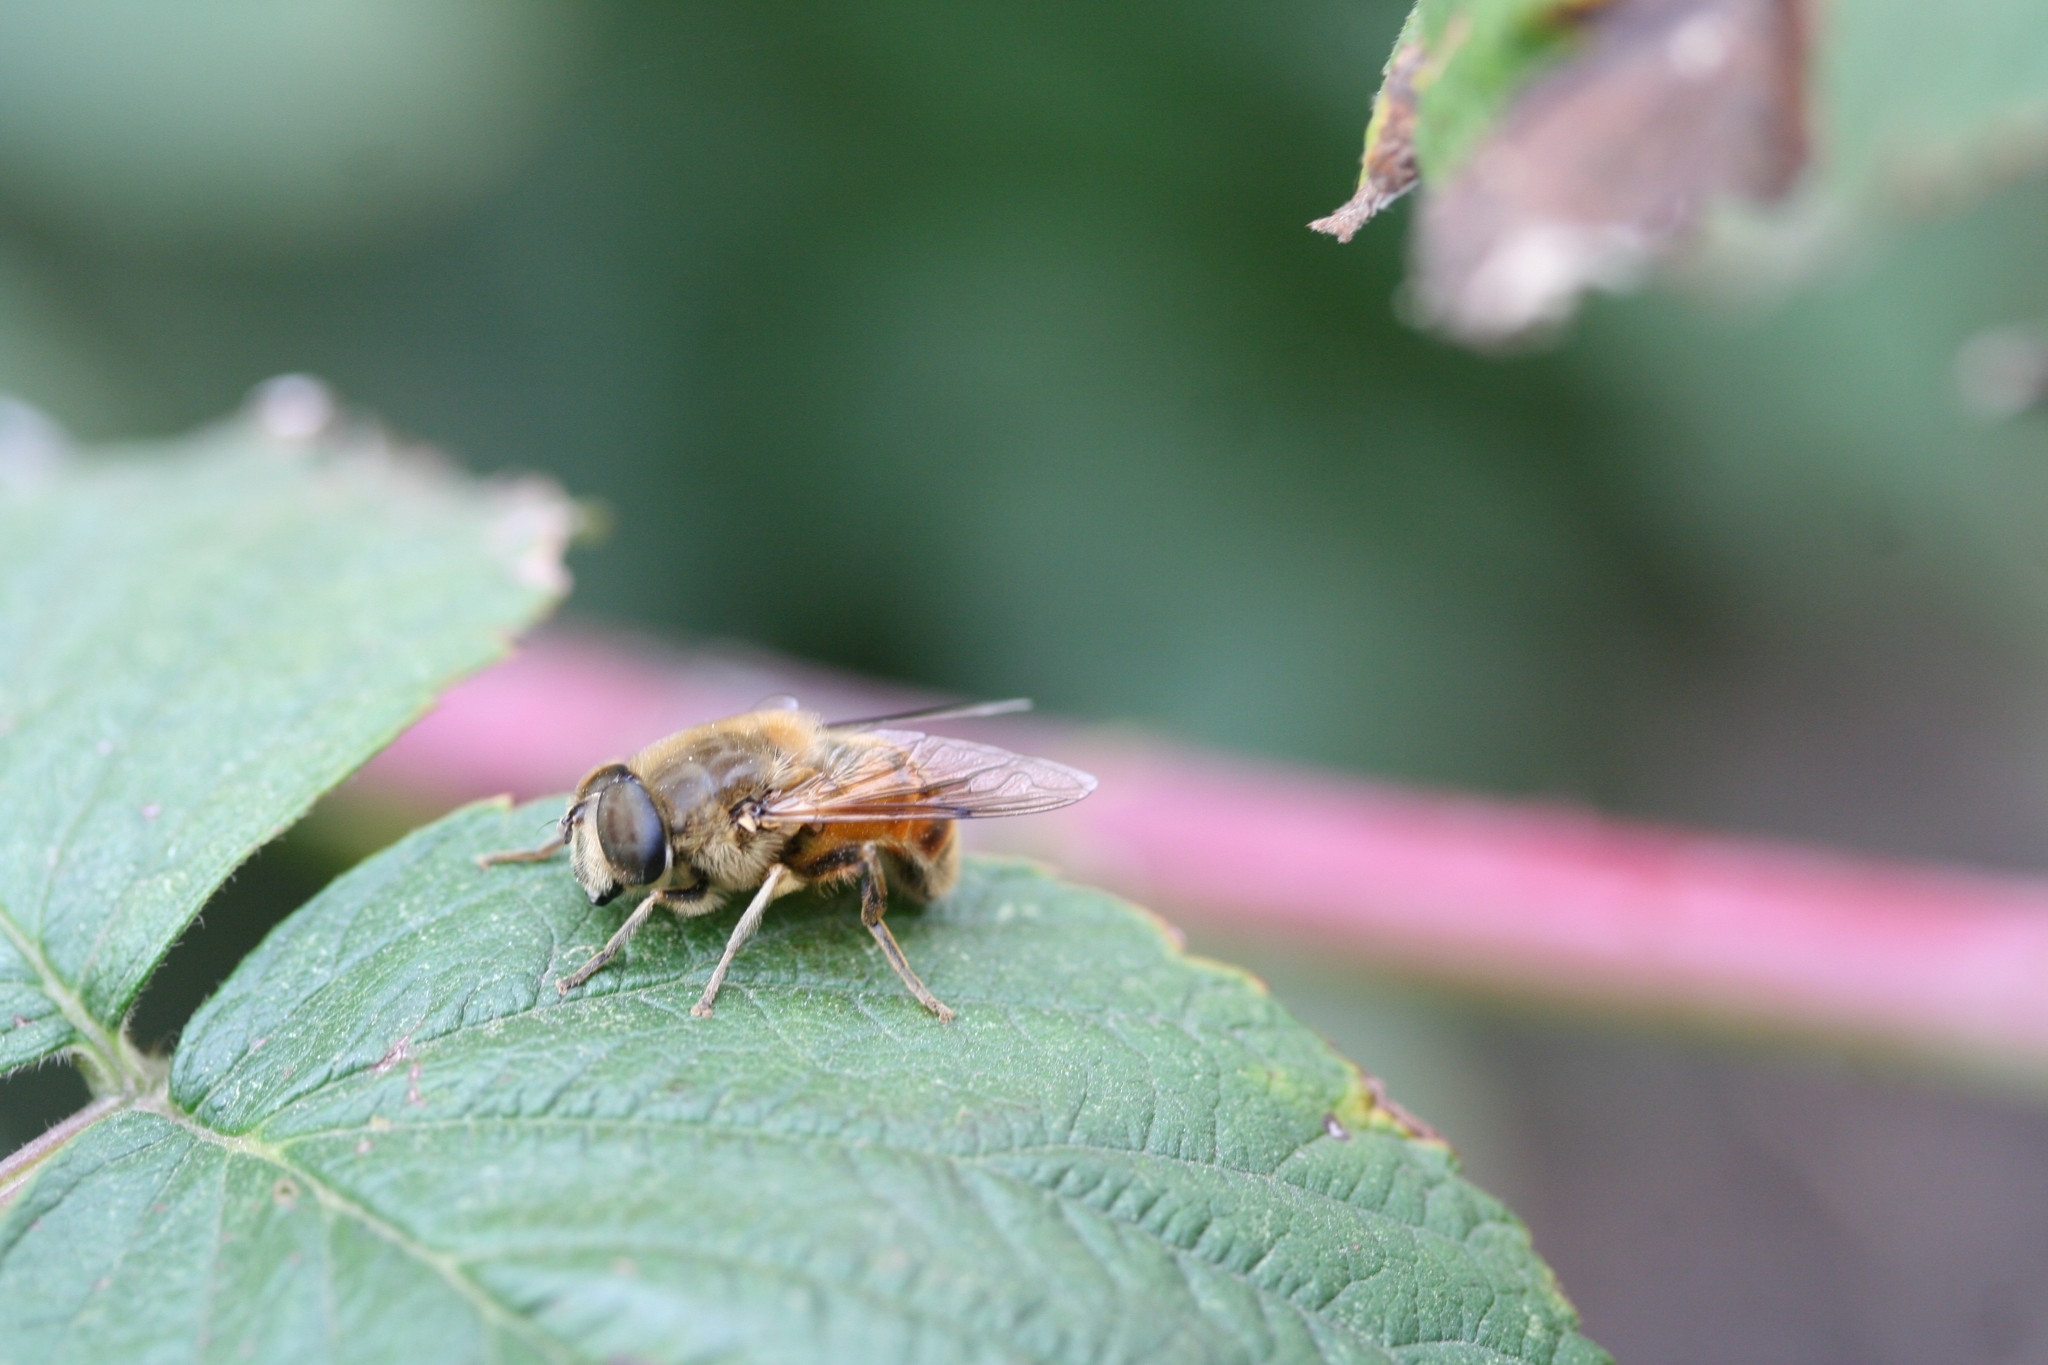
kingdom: Animalia
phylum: Arthropoda
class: Insecta
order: Diptera
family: Syrphidae
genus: Eristalis
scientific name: Eristalis tenax
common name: Drone fly
